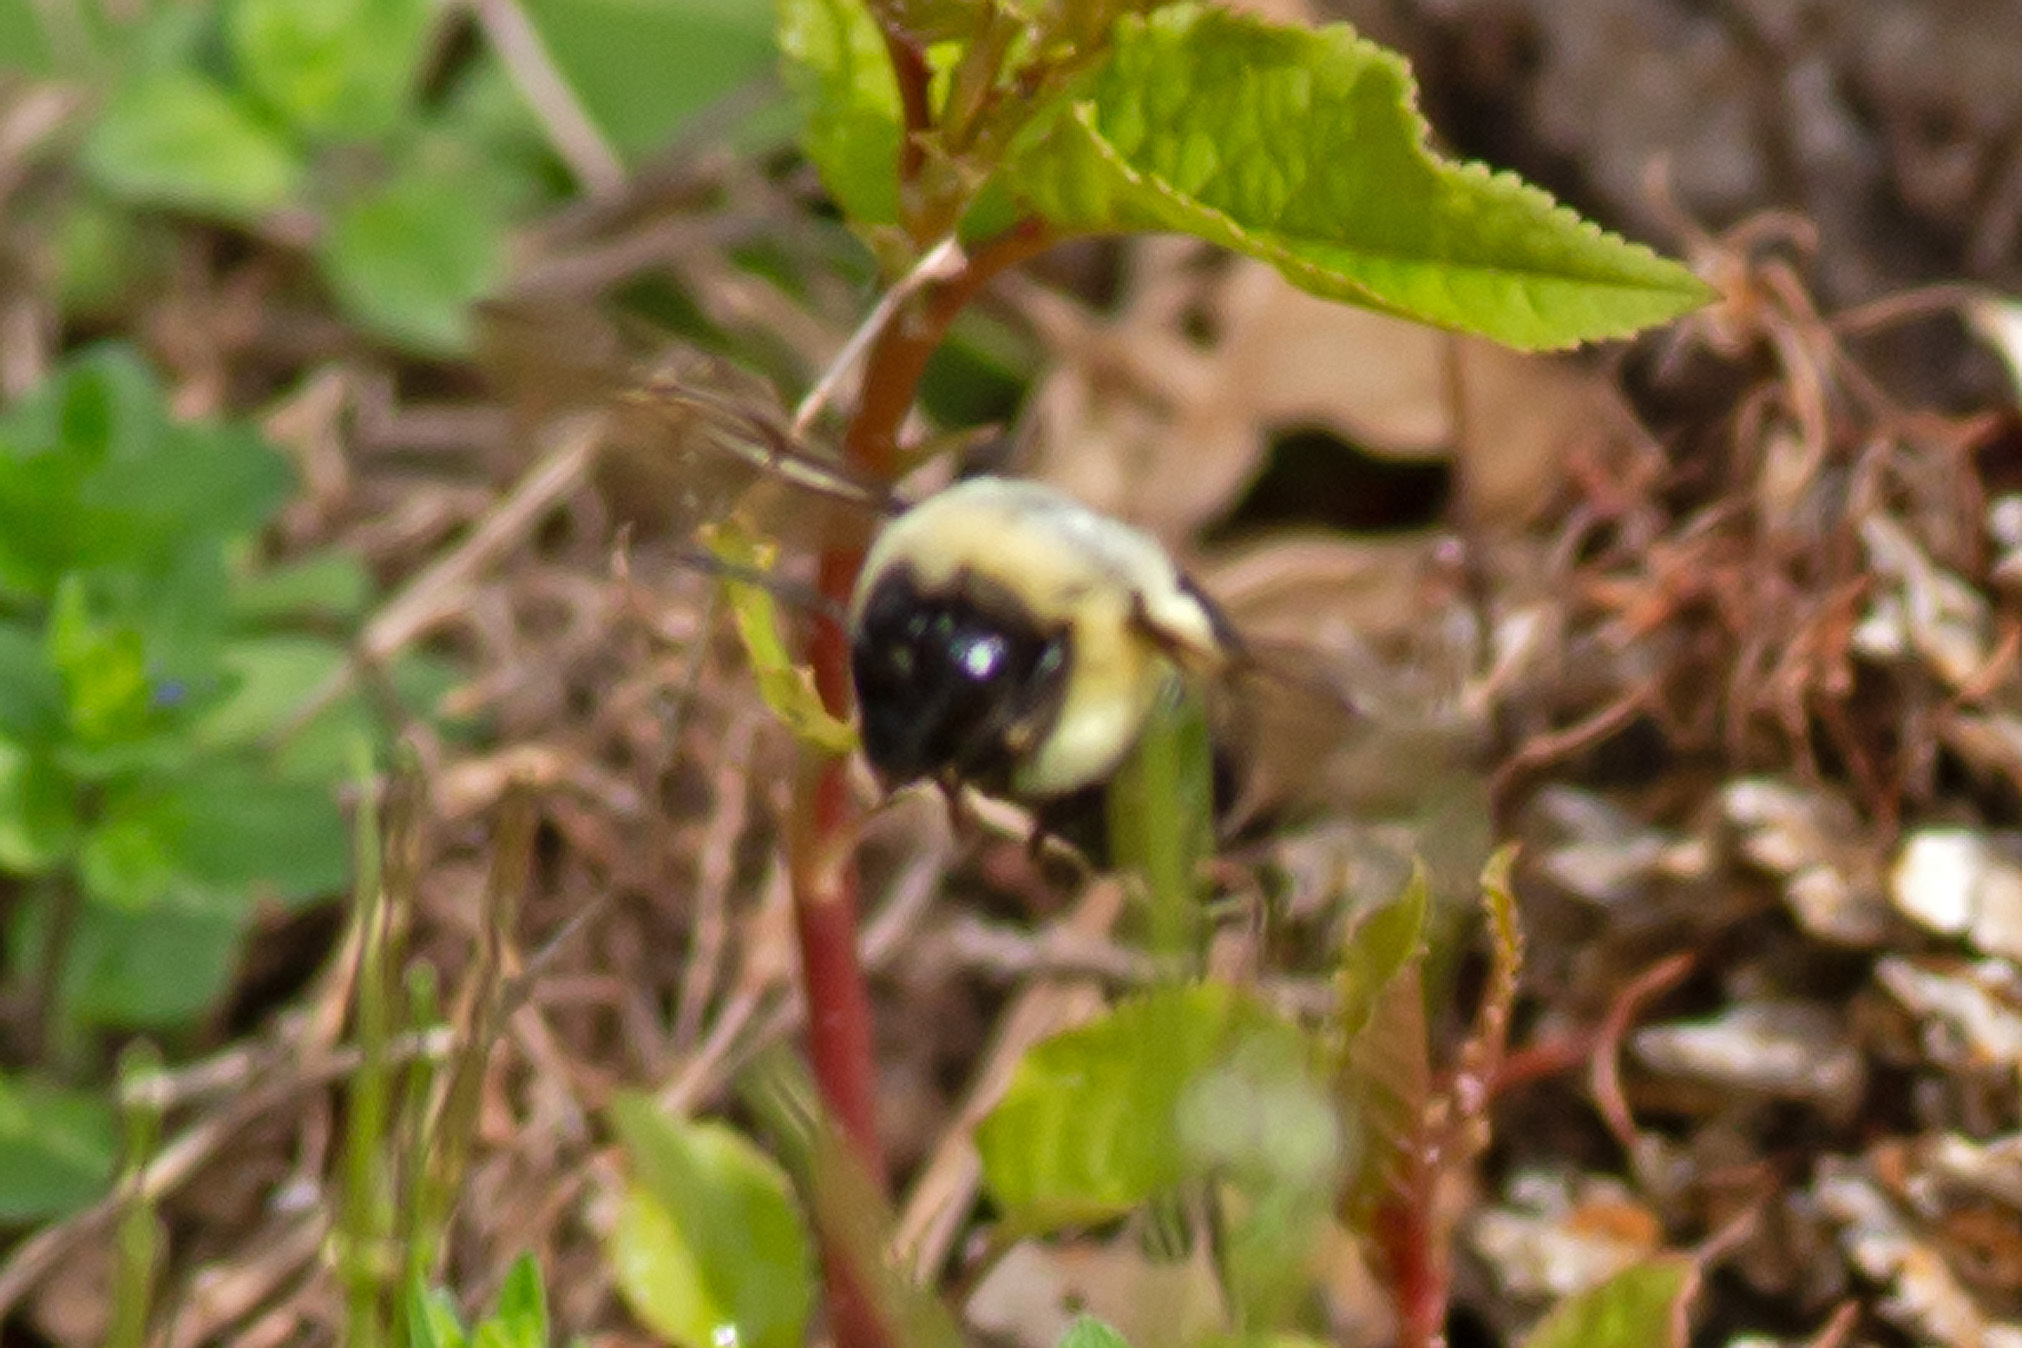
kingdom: Animalia
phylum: Arthropoda
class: Insecta
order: Hymenoptera
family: Apidae
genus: Bombus
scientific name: Bombus impatiens
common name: Common eastern bumble bee
